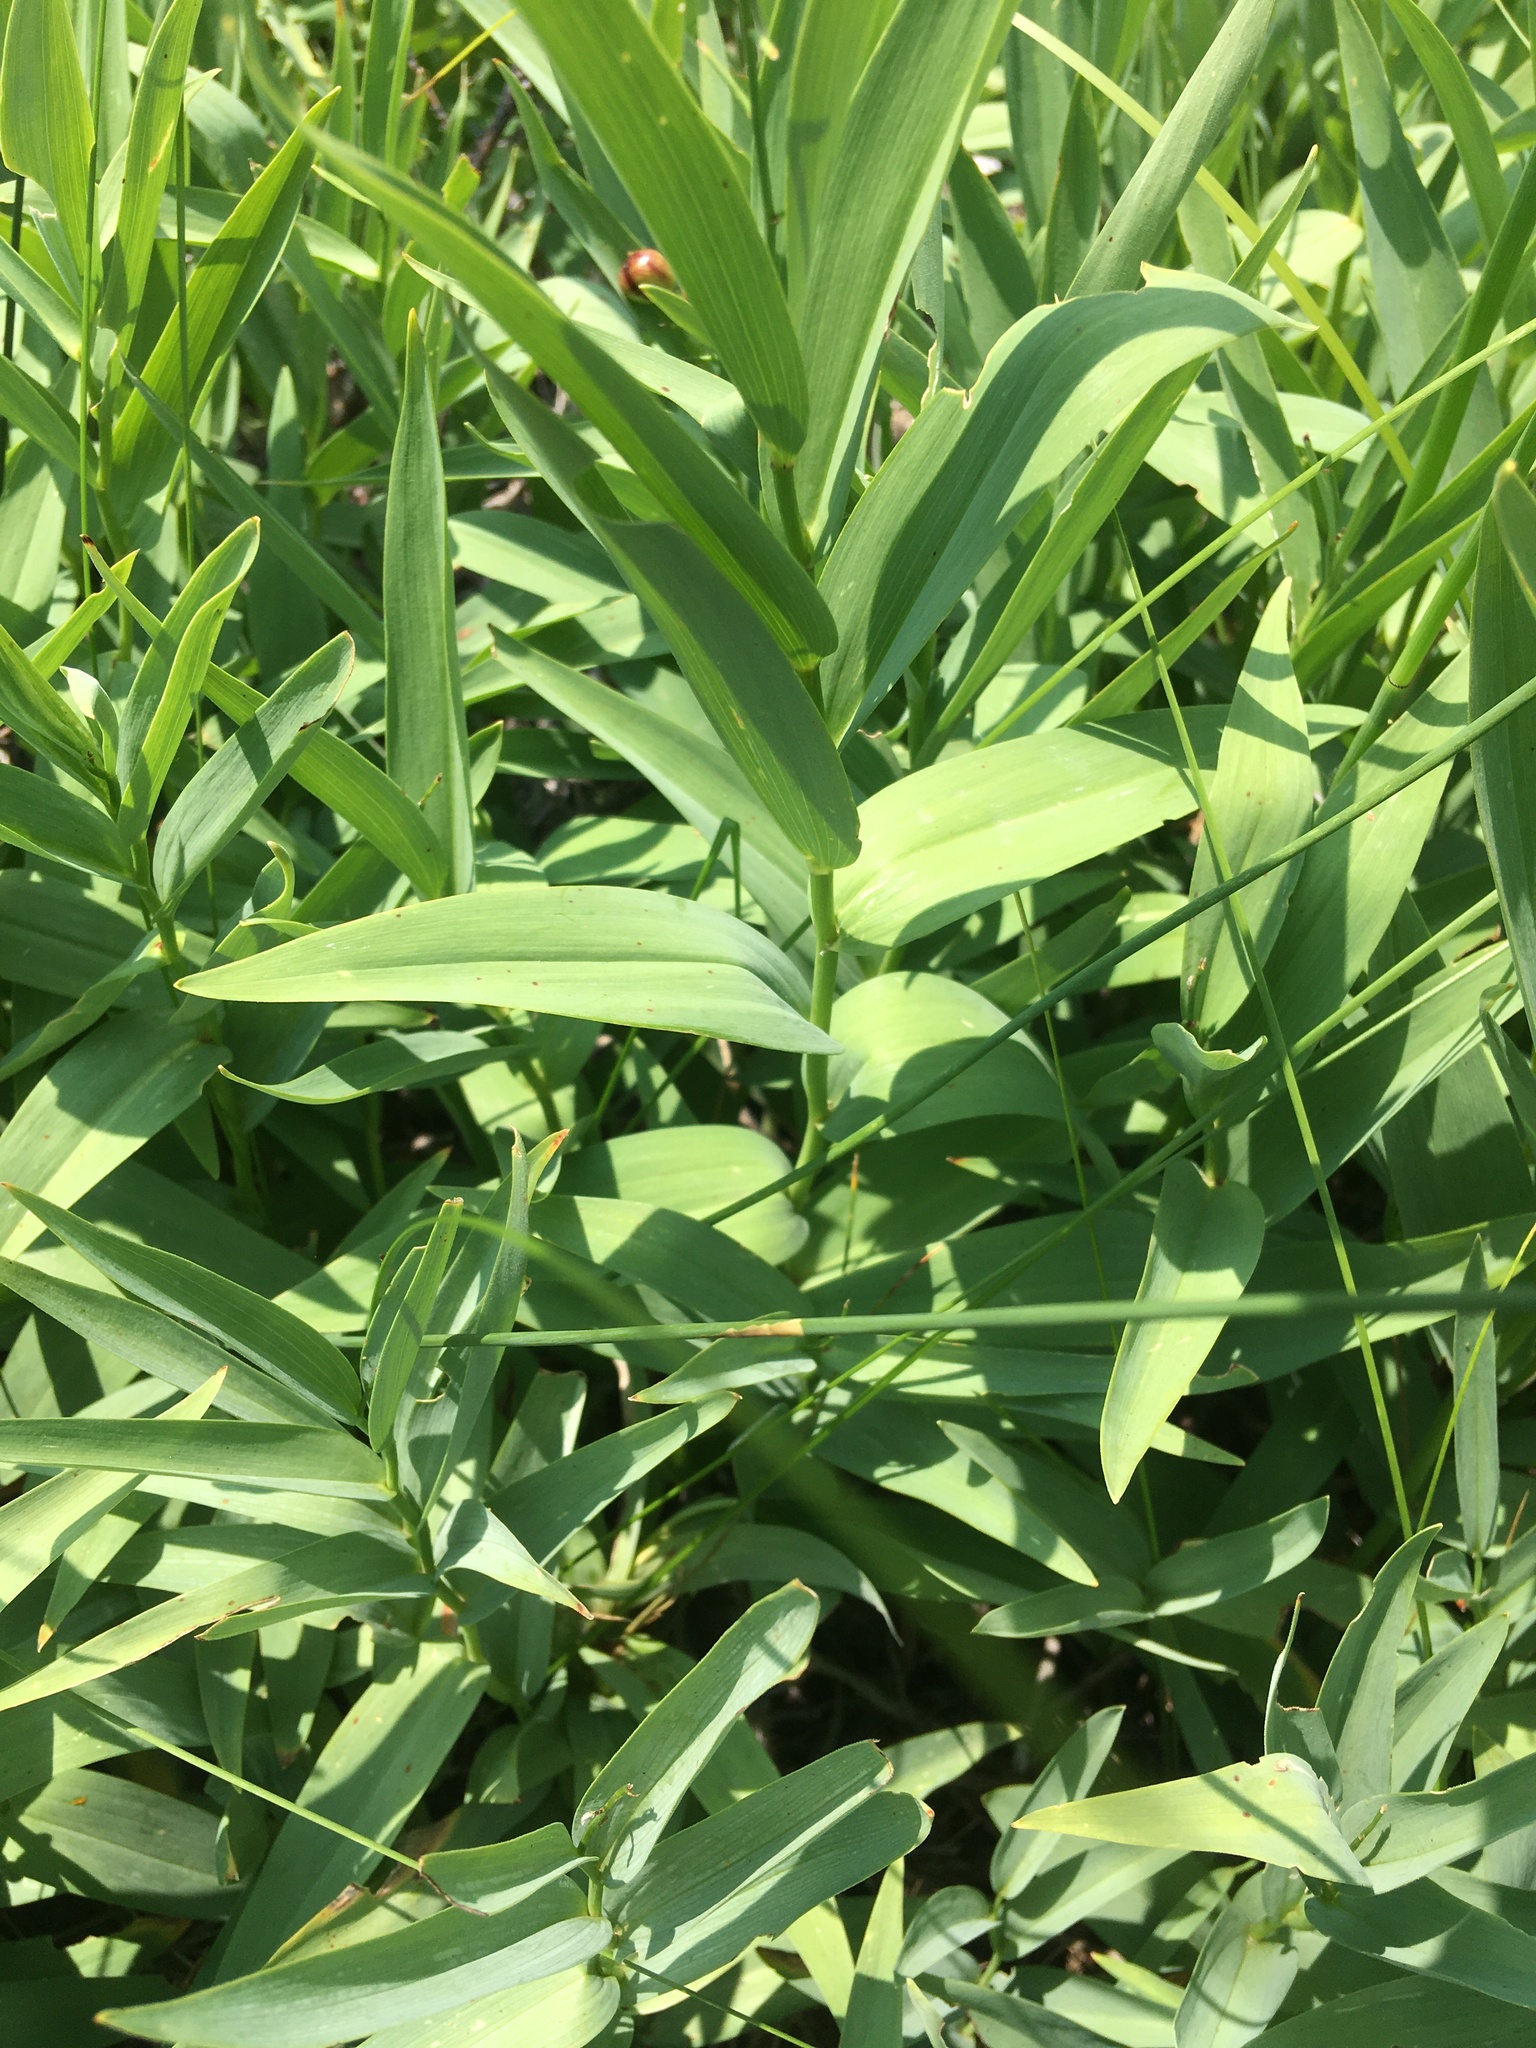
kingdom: Plantae
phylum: Tracheophyta
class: Liliopsida
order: Asparagales
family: Asparagaceae
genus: Maianthemum
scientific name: Maianthemum stellatum
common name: Little false solomon's seal
